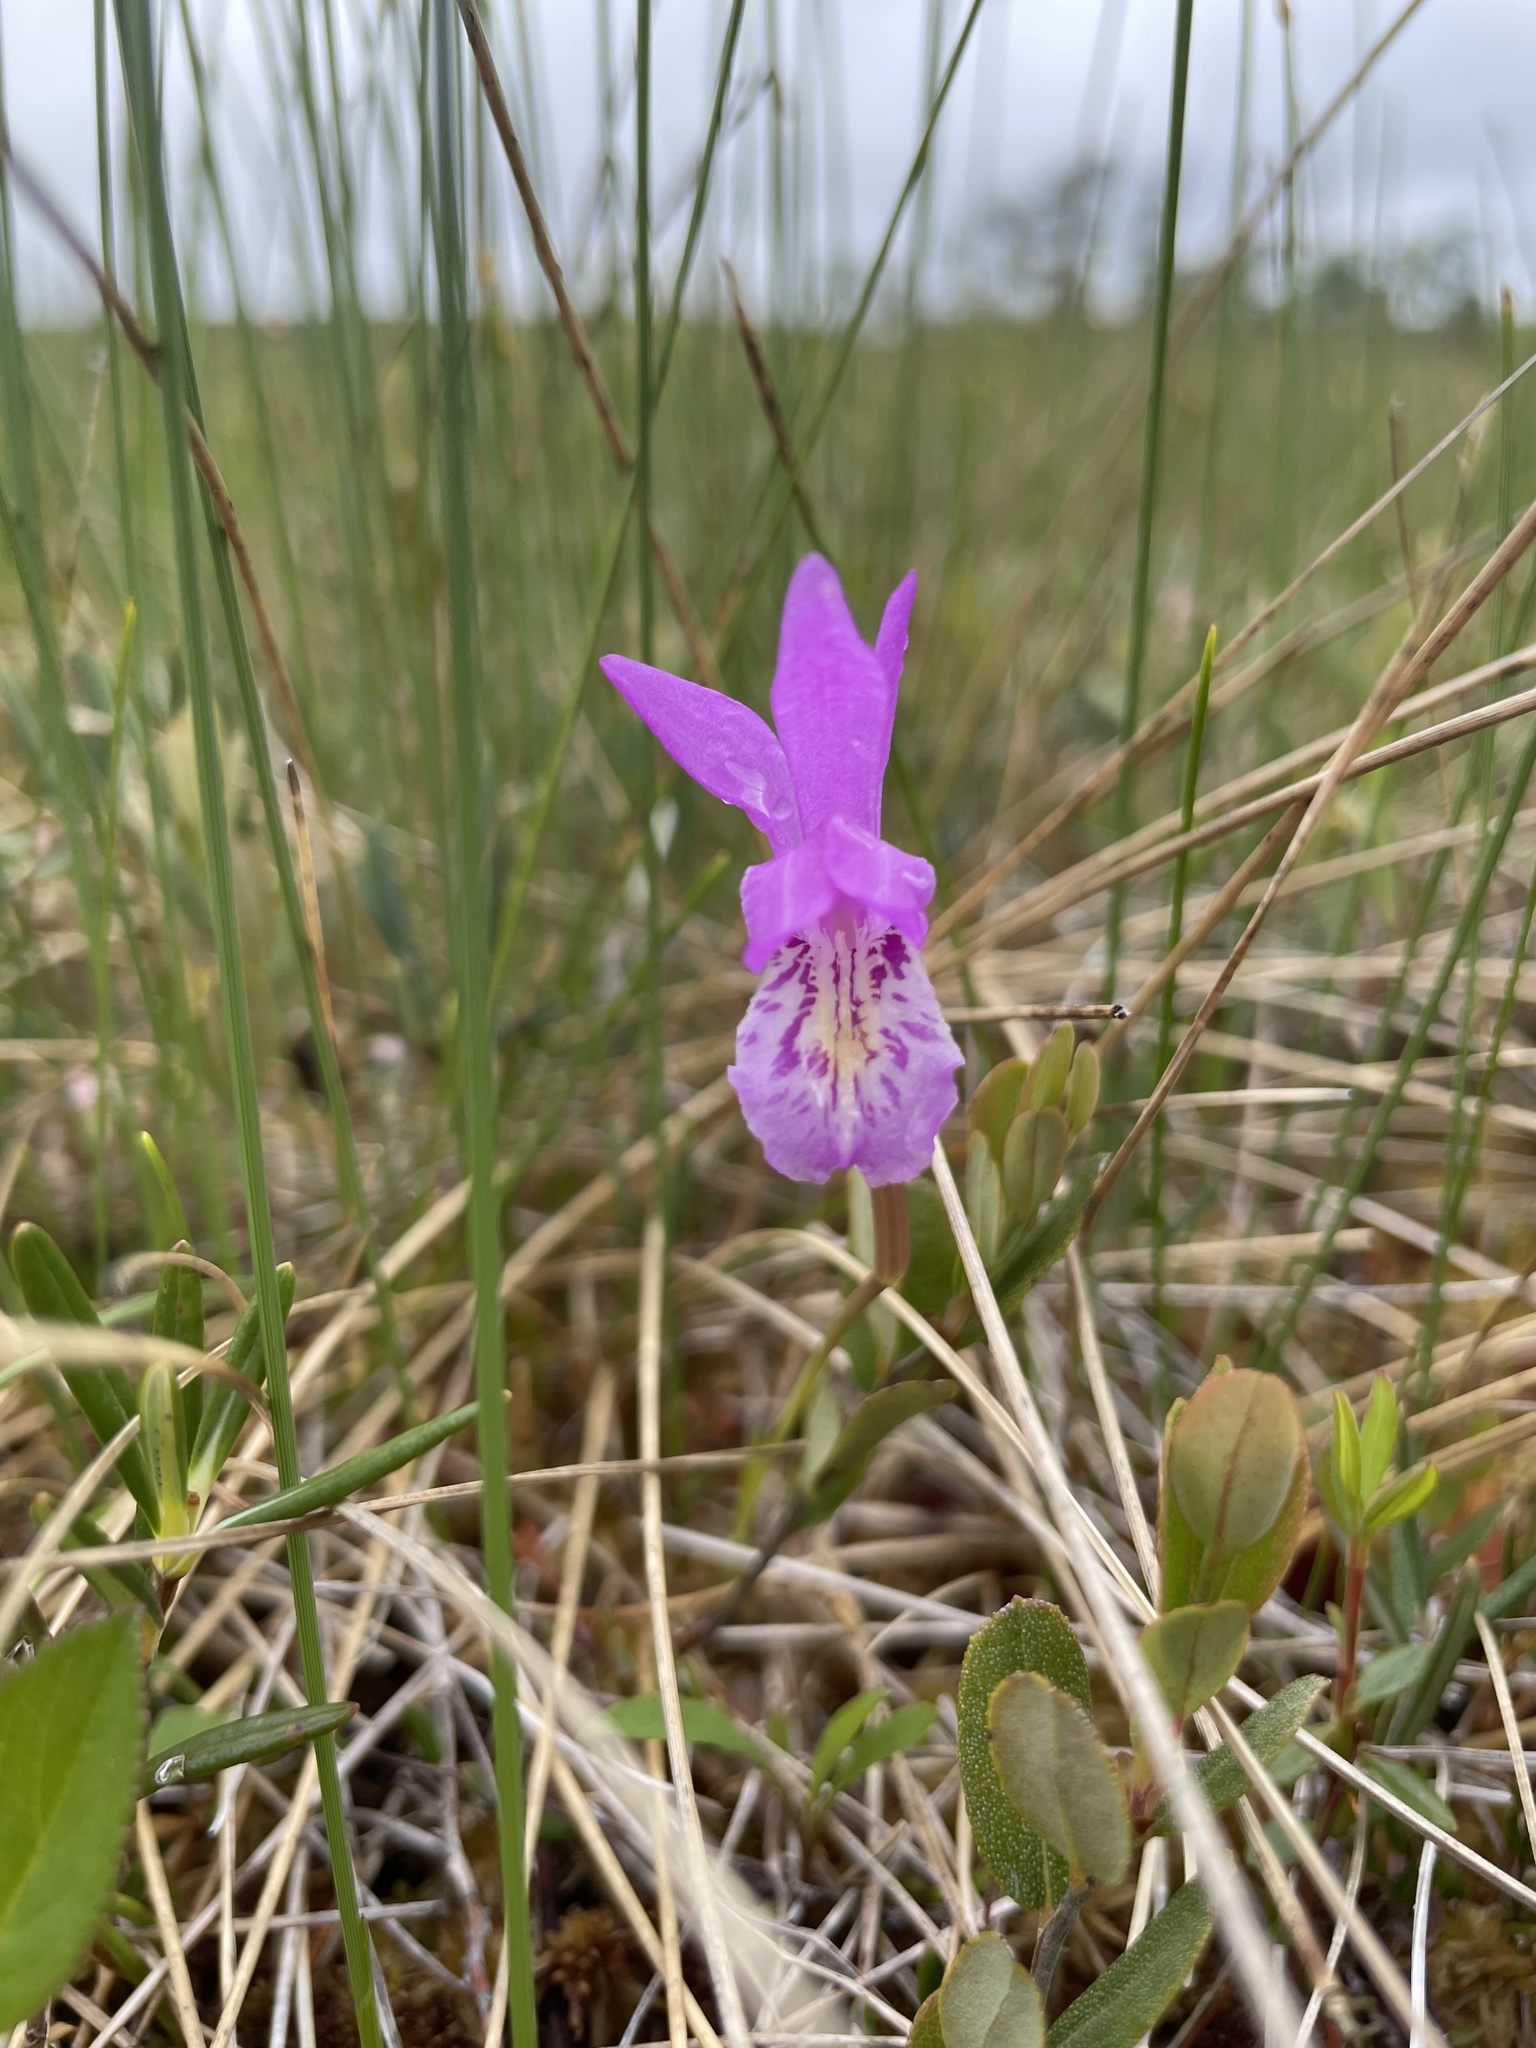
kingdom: Plantae
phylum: Tracheophyta
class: Liliopsida
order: Asparagales
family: Orchidaceae
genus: Arethusa
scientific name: Arethusa bulbosa
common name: Arethusa
